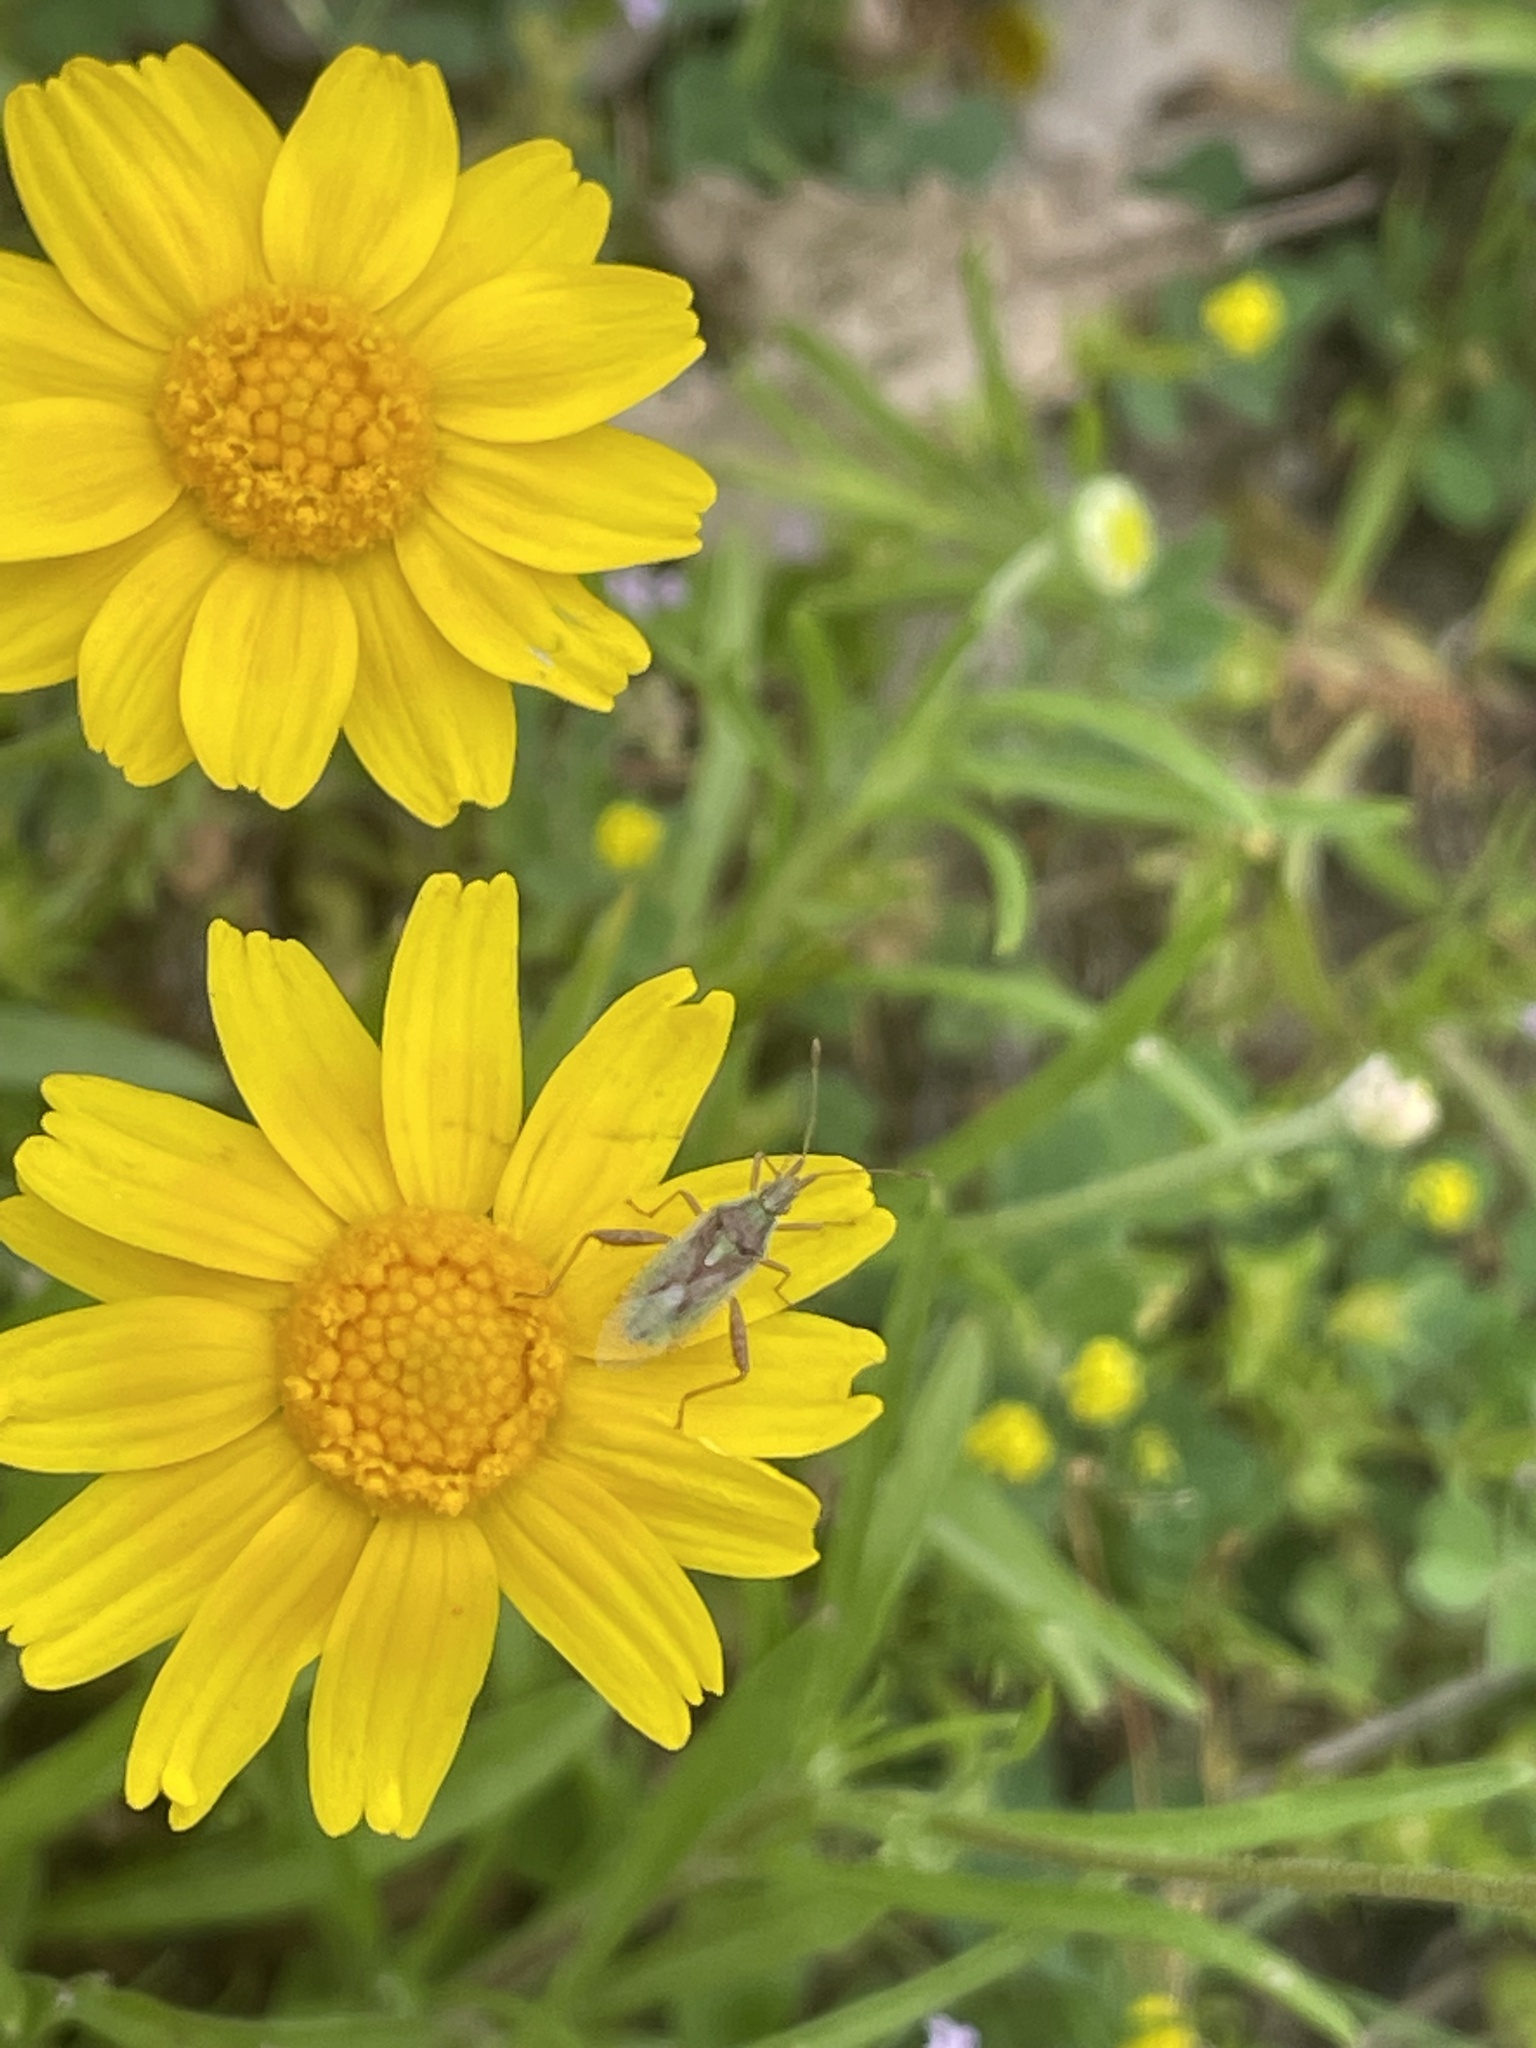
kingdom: Animalia
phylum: Arthropoda
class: Insecta
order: Hemiptera
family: Rhopalidae
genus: Harmostes
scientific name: Harmostes reflexulus
